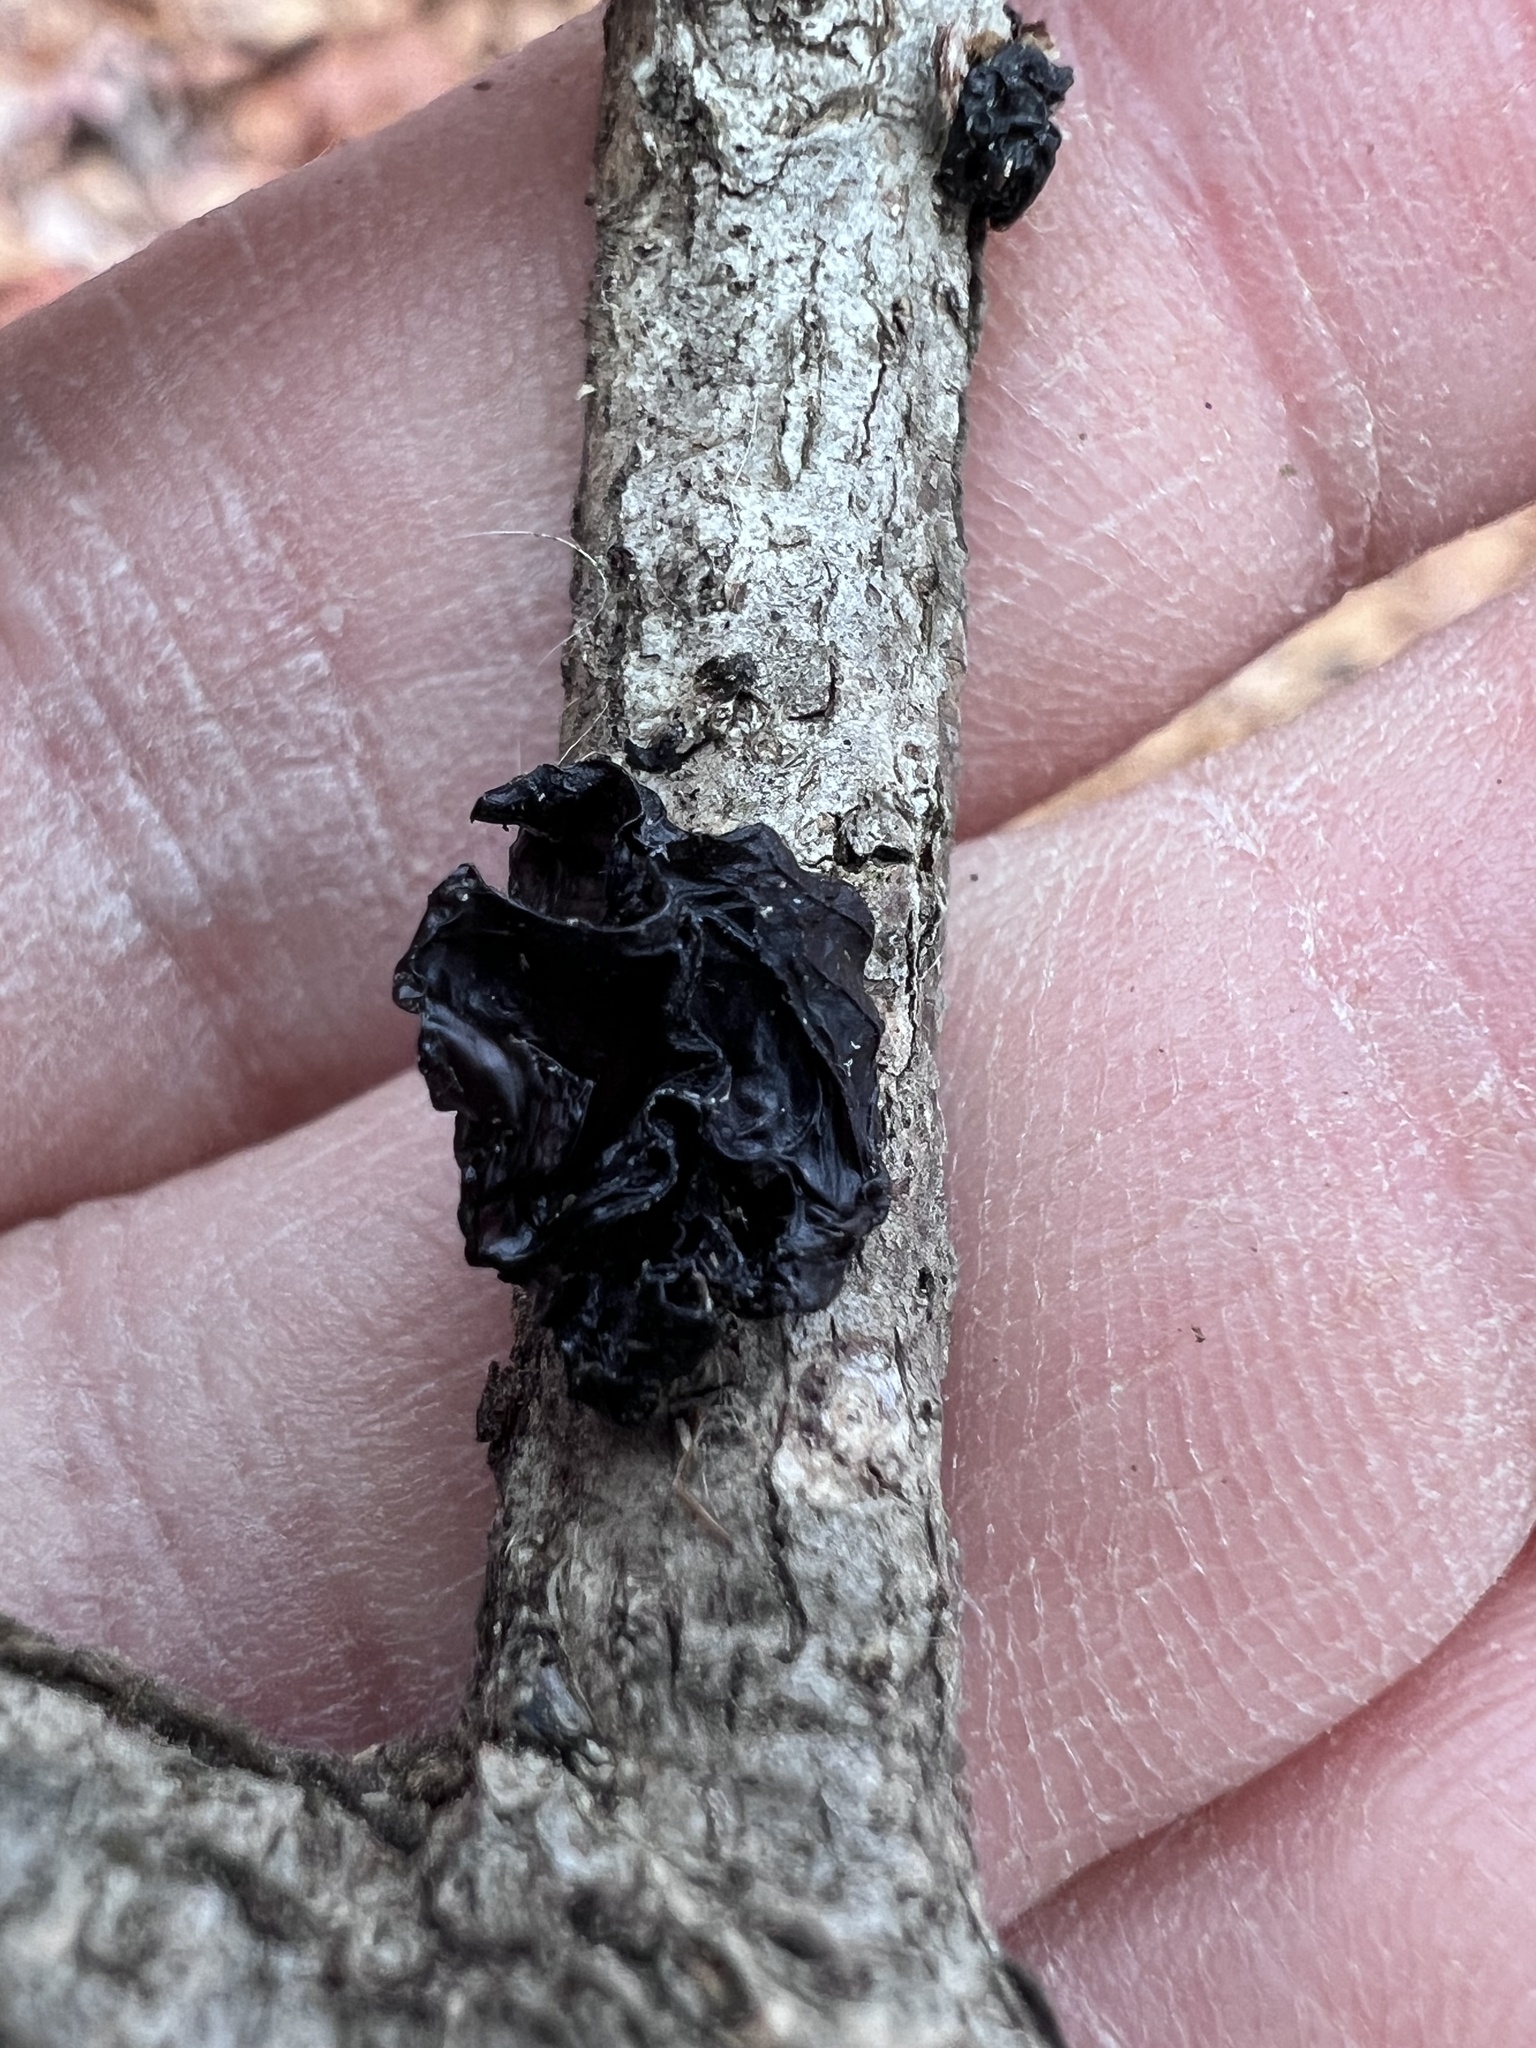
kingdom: Fungi
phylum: Basidiomycota
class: Agaricomycetes
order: Auriculariales
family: Auriculariaceae
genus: Exidia
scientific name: Exidia
